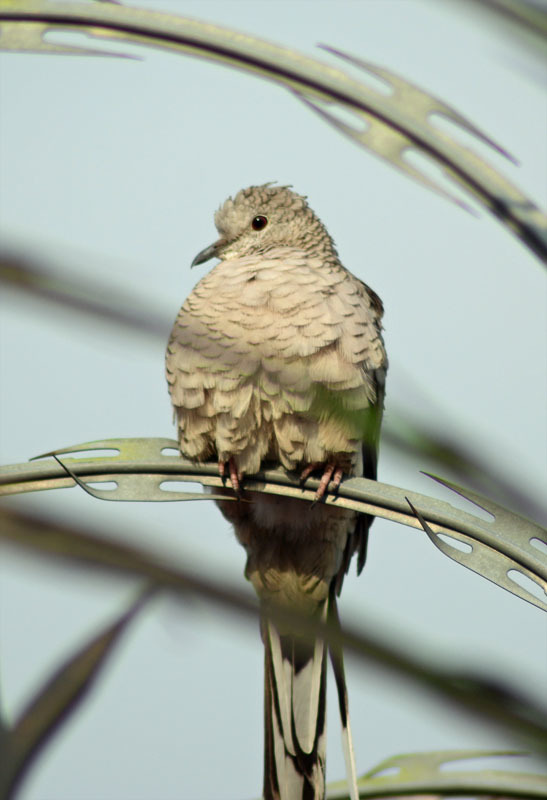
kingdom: Animalia
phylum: Chordata
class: Aves
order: Columbiformes
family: Columbidae
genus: Columbina
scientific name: Columbina inca
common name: Inca dove
